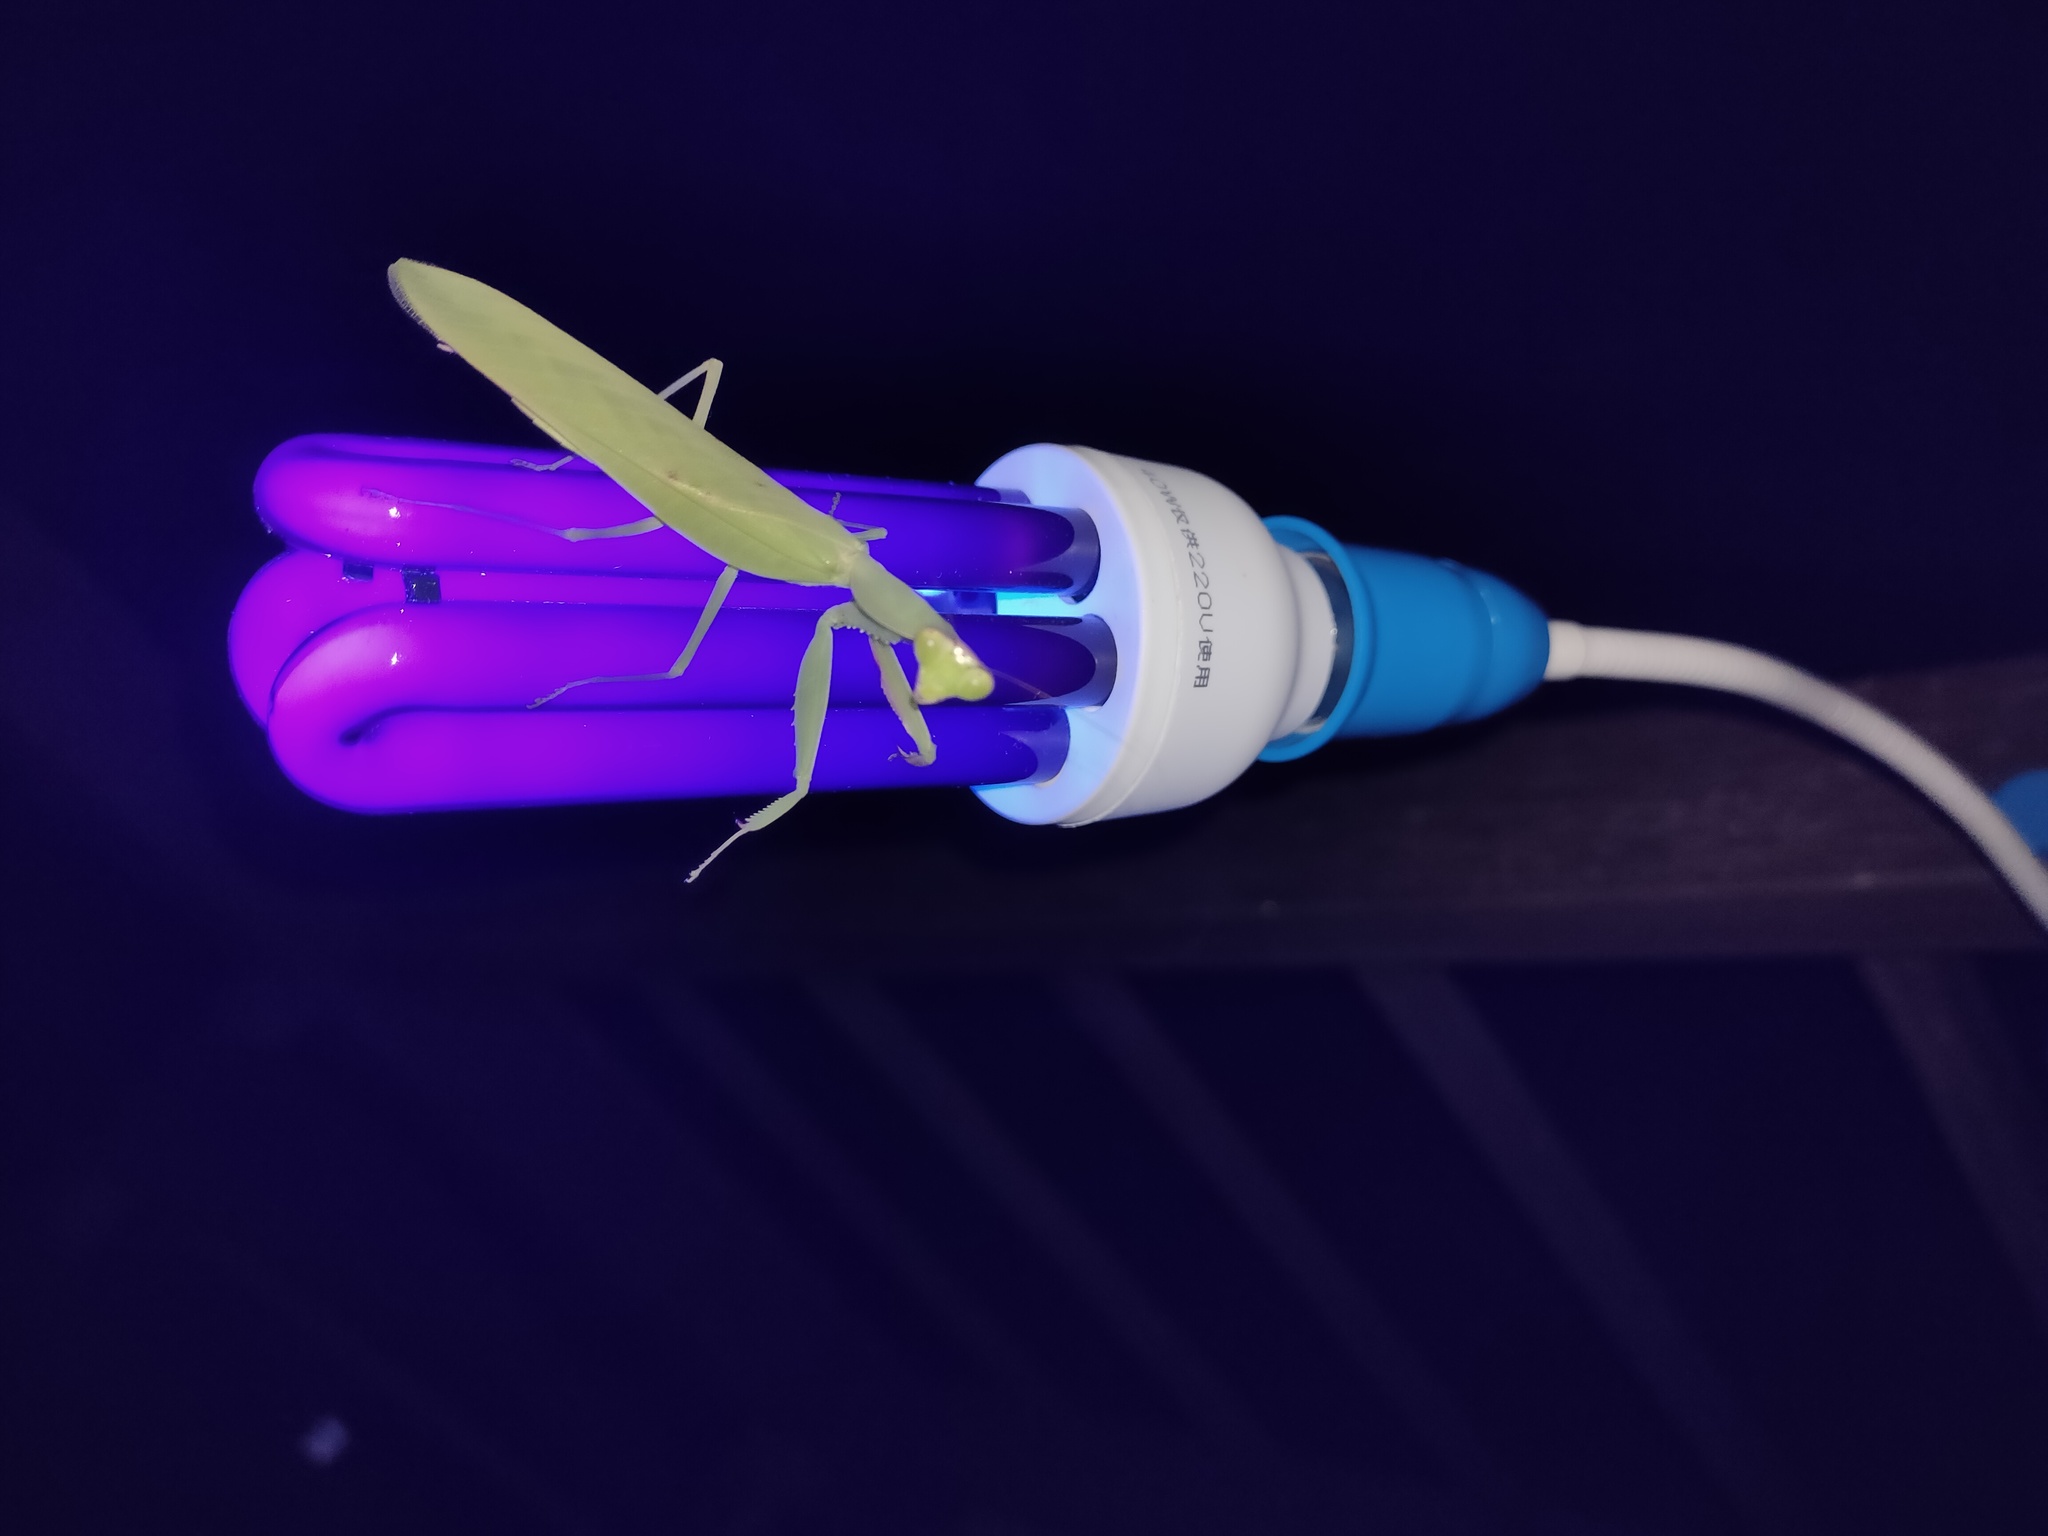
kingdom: Animalia
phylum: Arthropoda
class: Insecta
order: Mantodea
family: Mantidae
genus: Rhombomantis
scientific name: Rhombomantis longipennis
